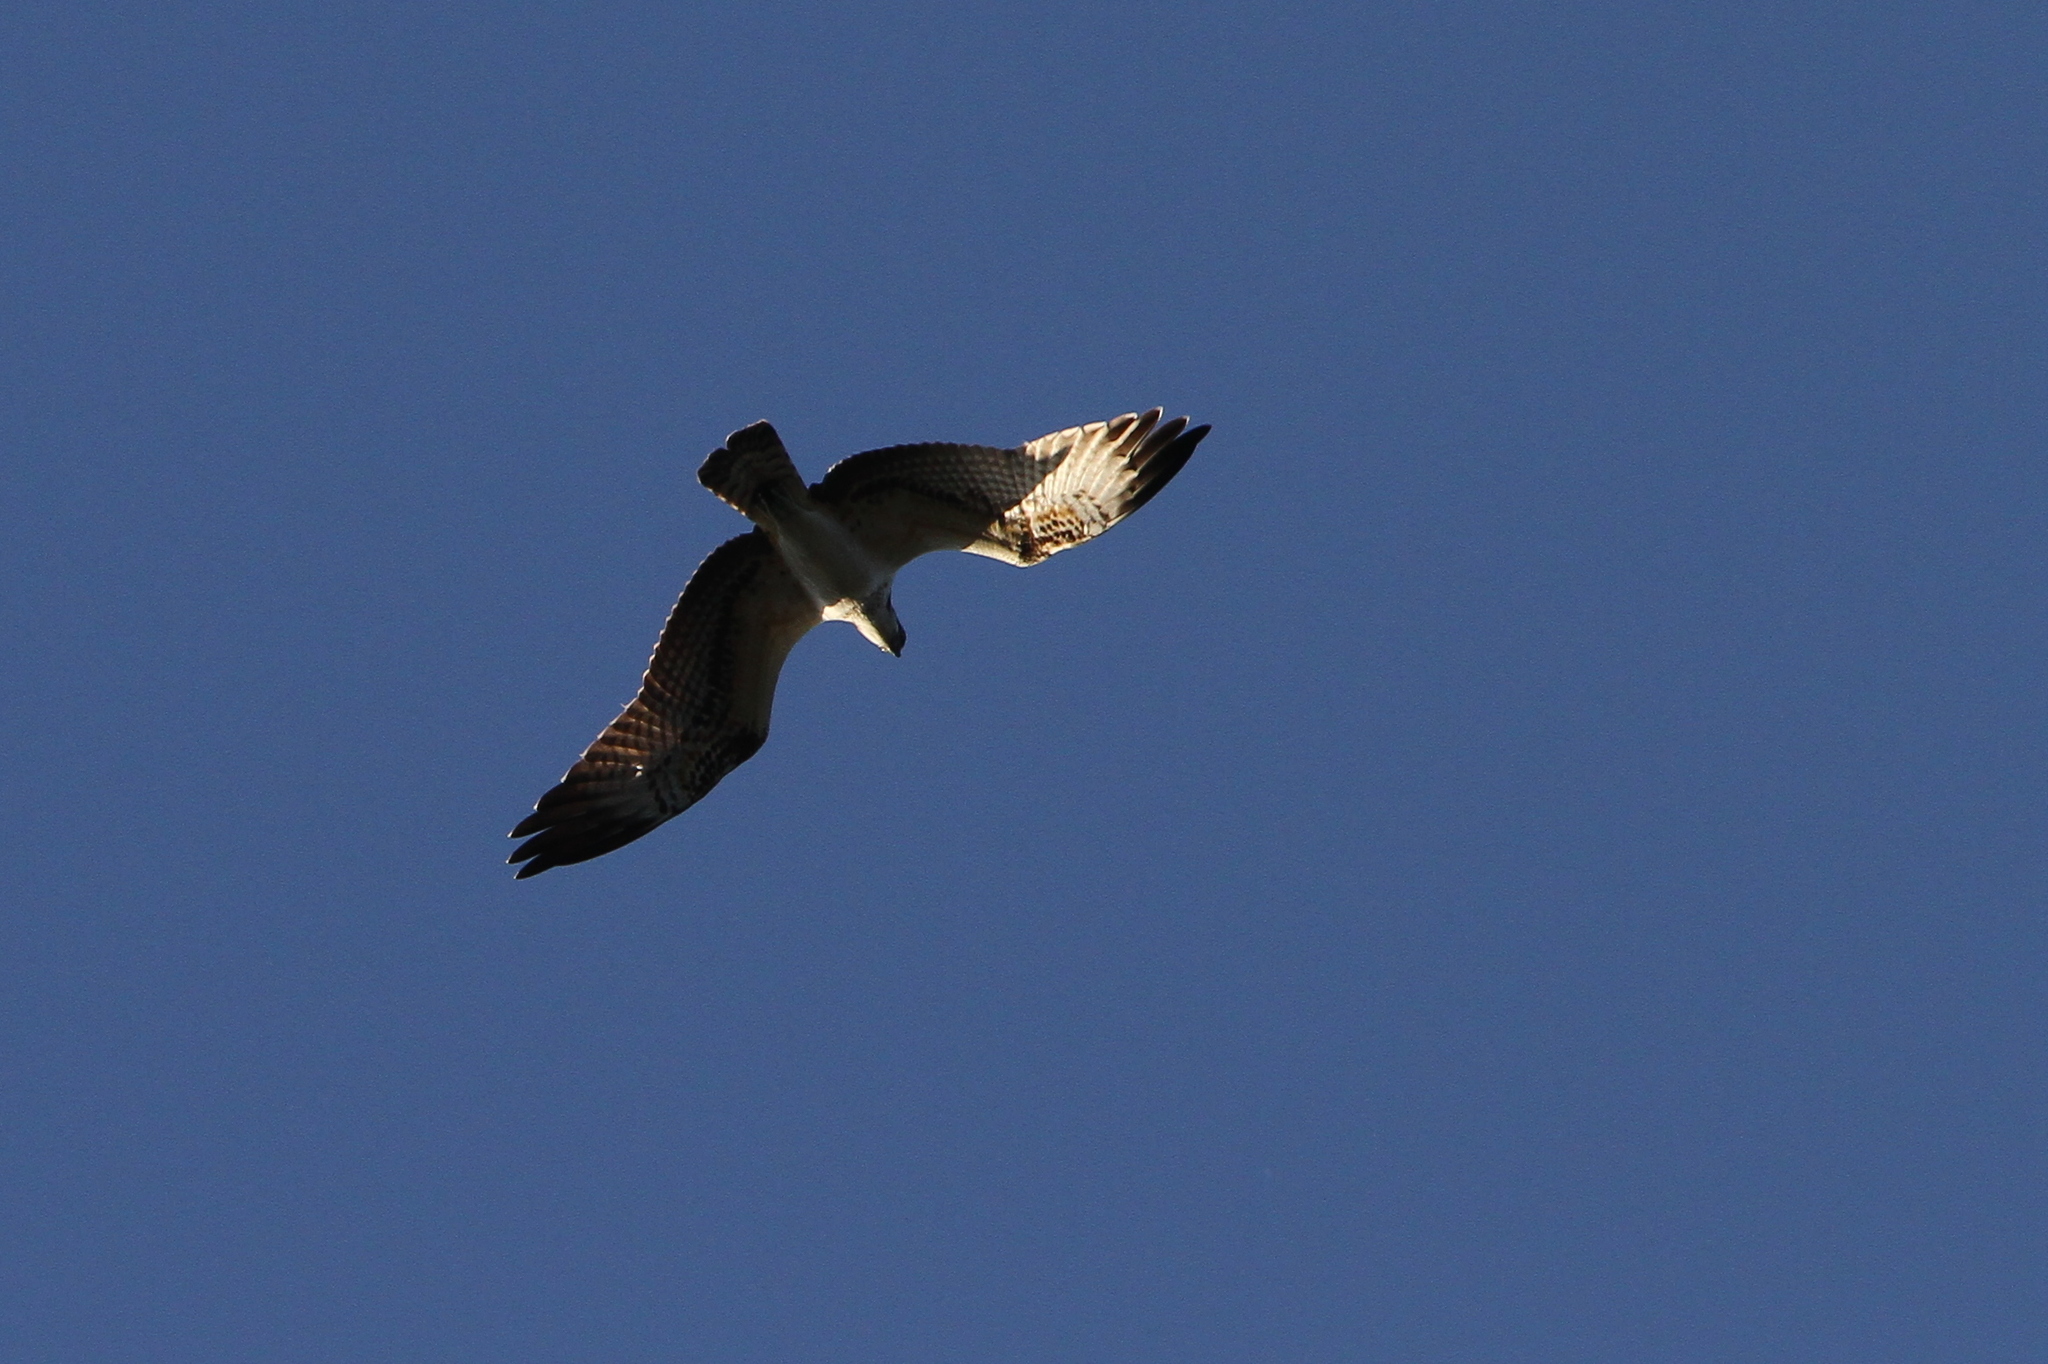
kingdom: Animalia
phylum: Chordata
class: Aves
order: Accipitriformes
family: Pandionidae
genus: Pandion
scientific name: Pandion haliaetus
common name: Osprey
